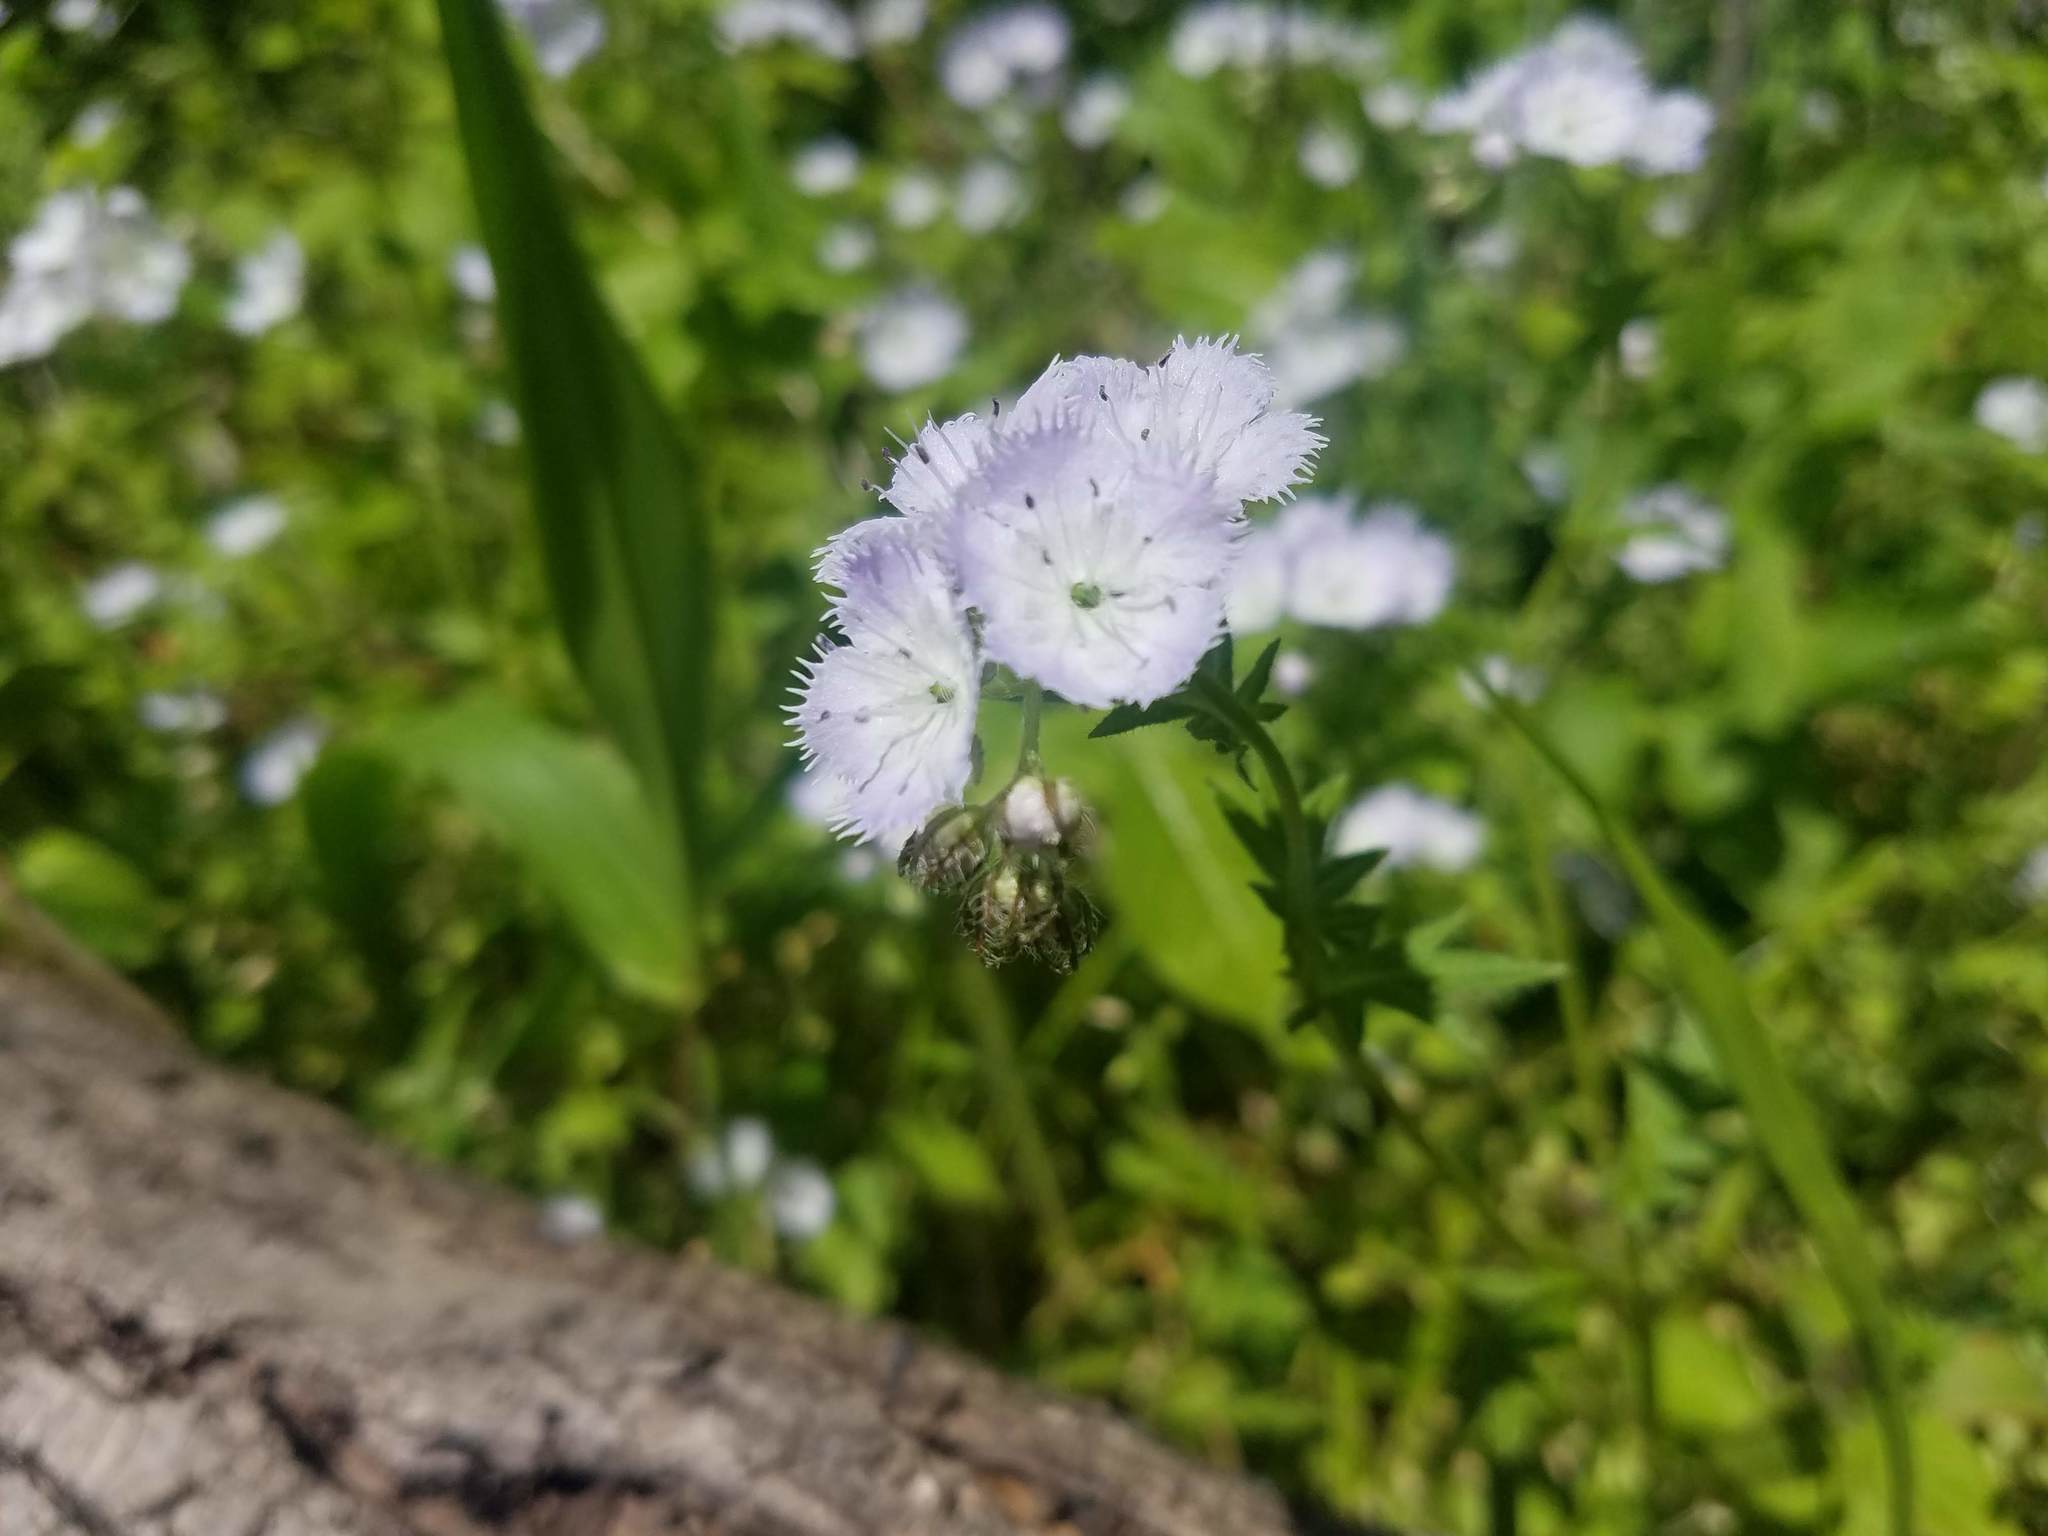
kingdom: Plantae
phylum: Tracheophyta
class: Magnoliopsida
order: Boraginales
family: Hydrophyllaceae
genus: Phacelia
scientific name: Phacelia purshii
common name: Miami-mist
